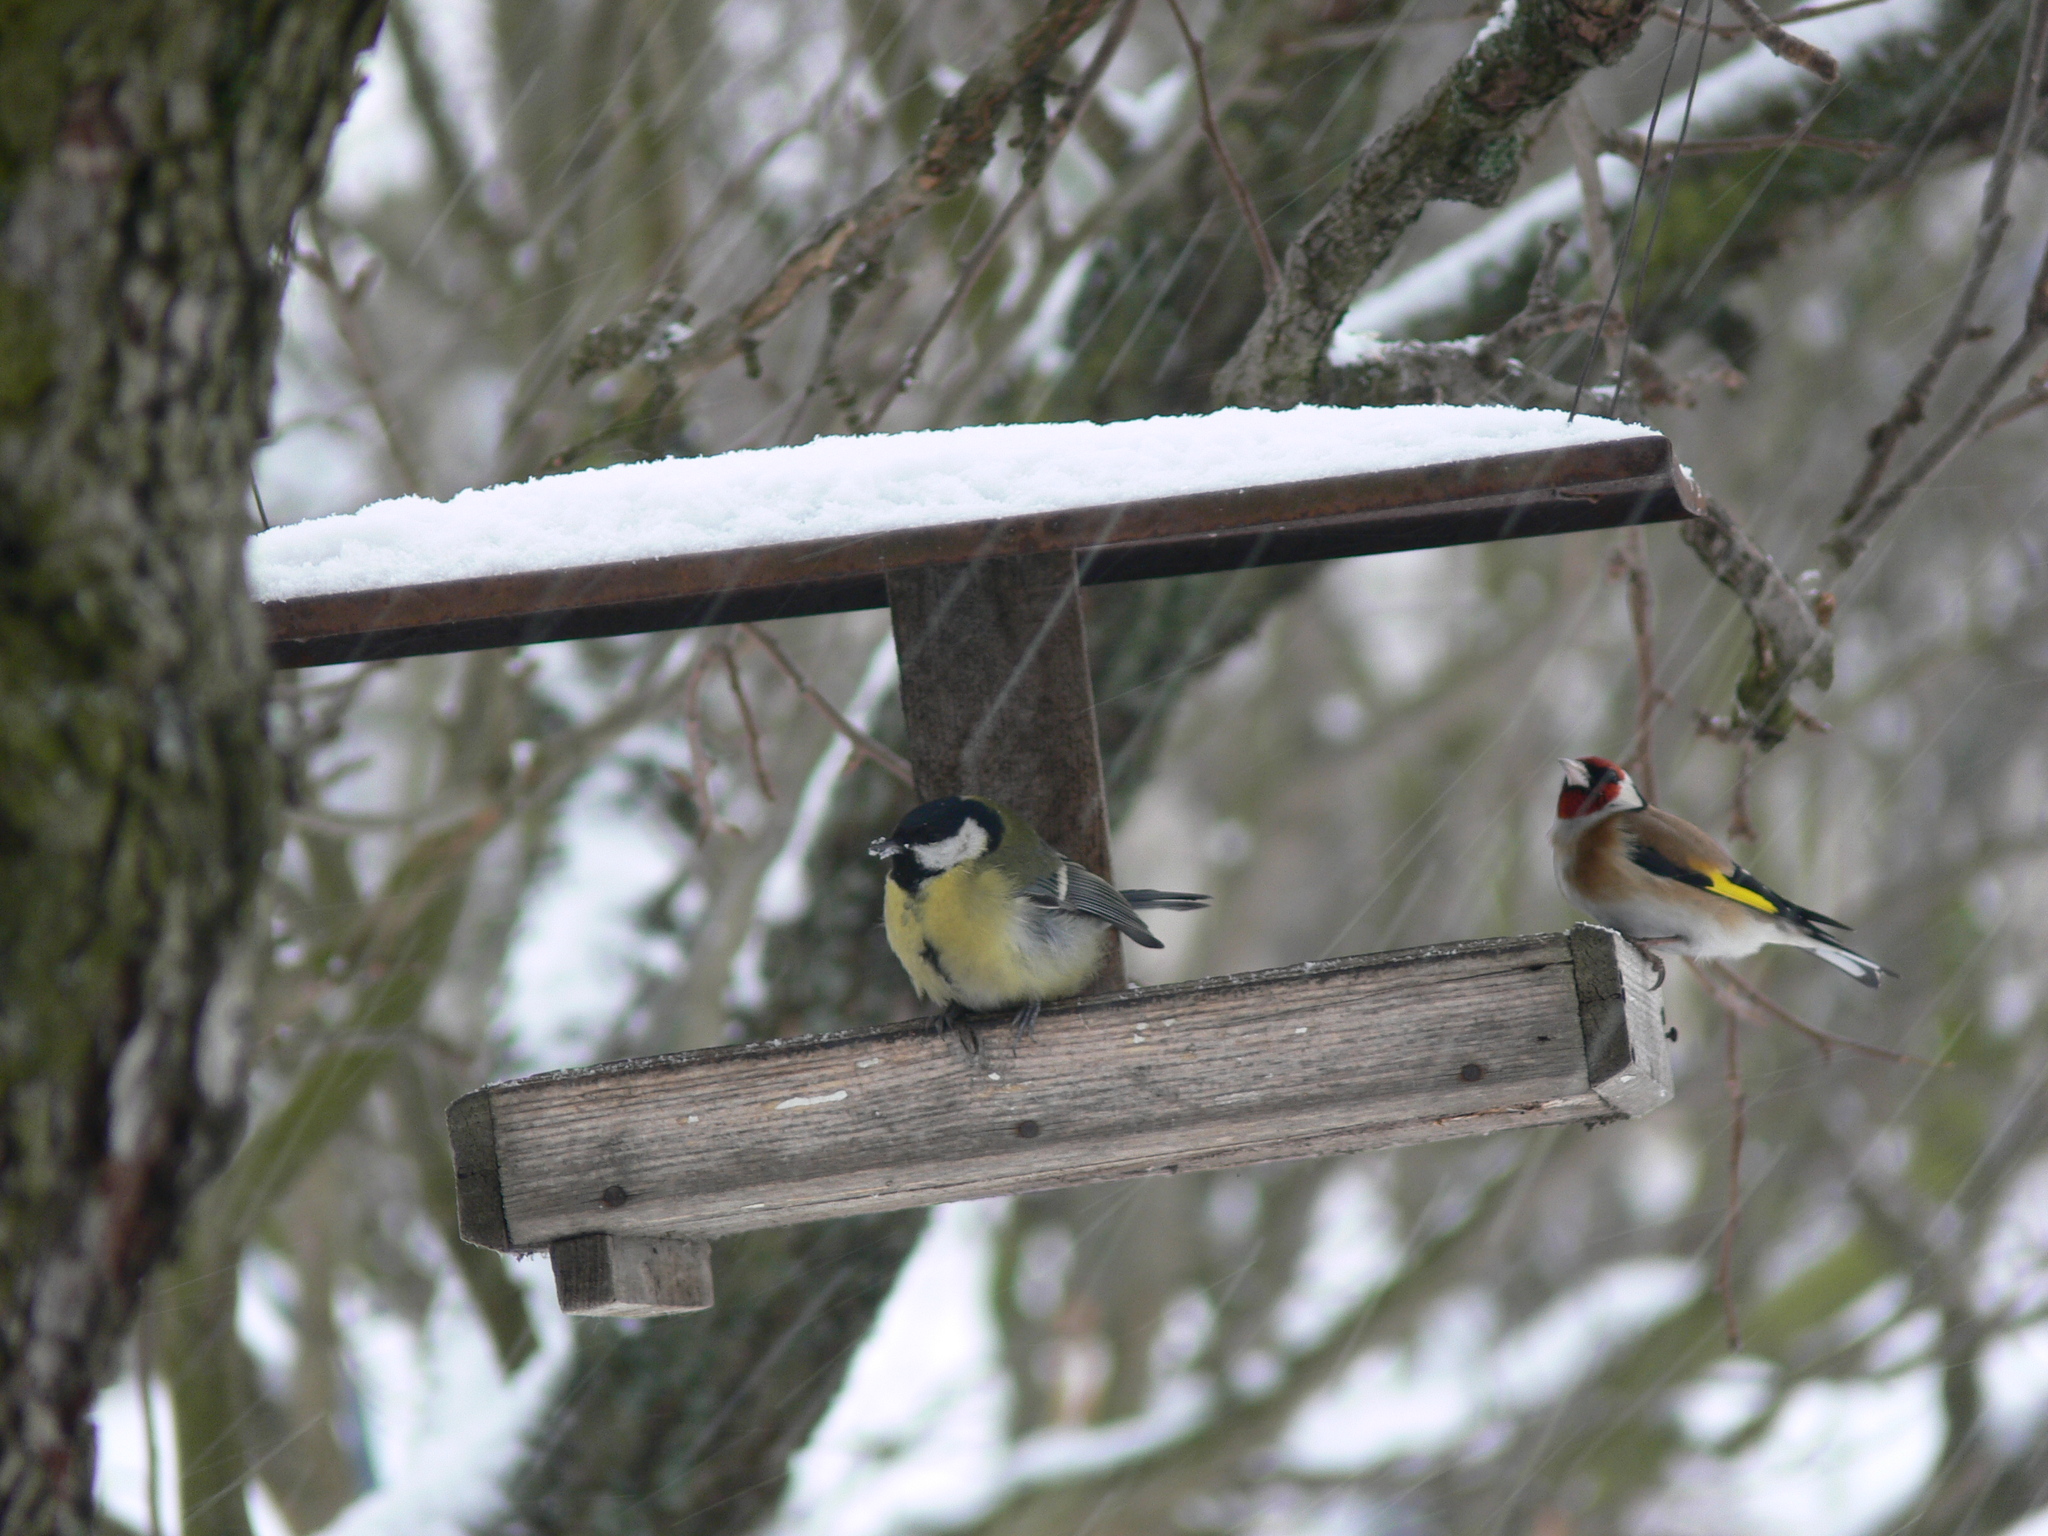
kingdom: Animalia
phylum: Chordata
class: Aves
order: Passeriformes
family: Paridae
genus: Parus
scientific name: Parus major
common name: Great tit
